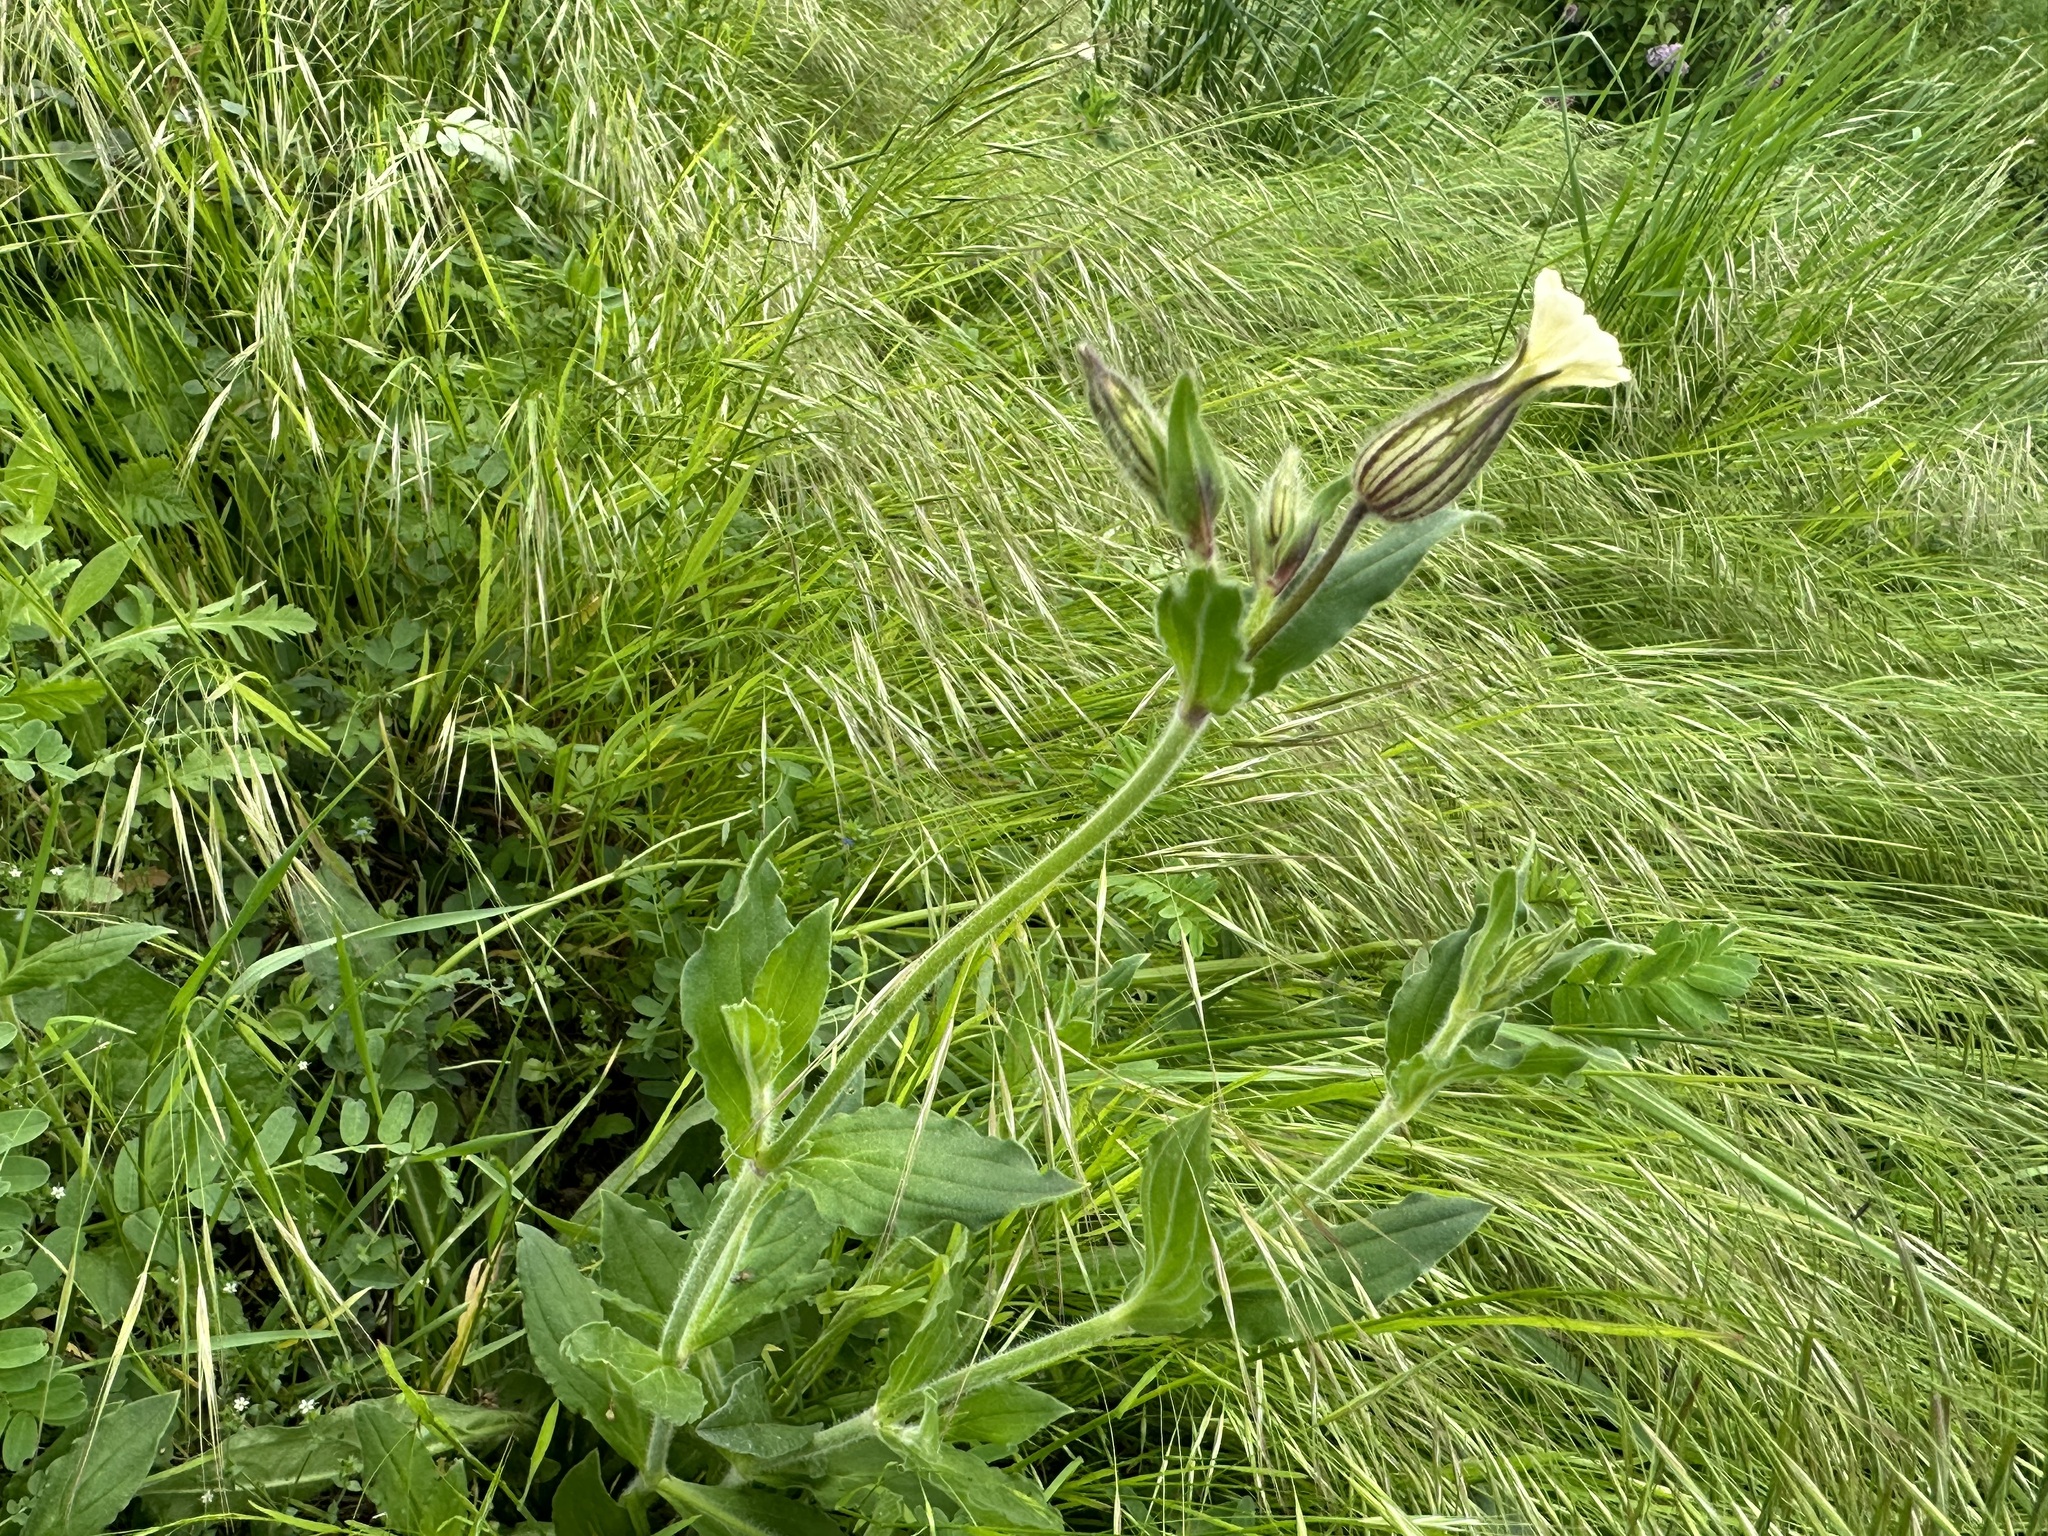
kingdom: Plantae
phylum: Tracheophyta
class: Magnoliopsida
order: Caryophyllales
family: Caryophyllaceae
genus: Silene
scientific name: Silene latifolia
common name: White campion
